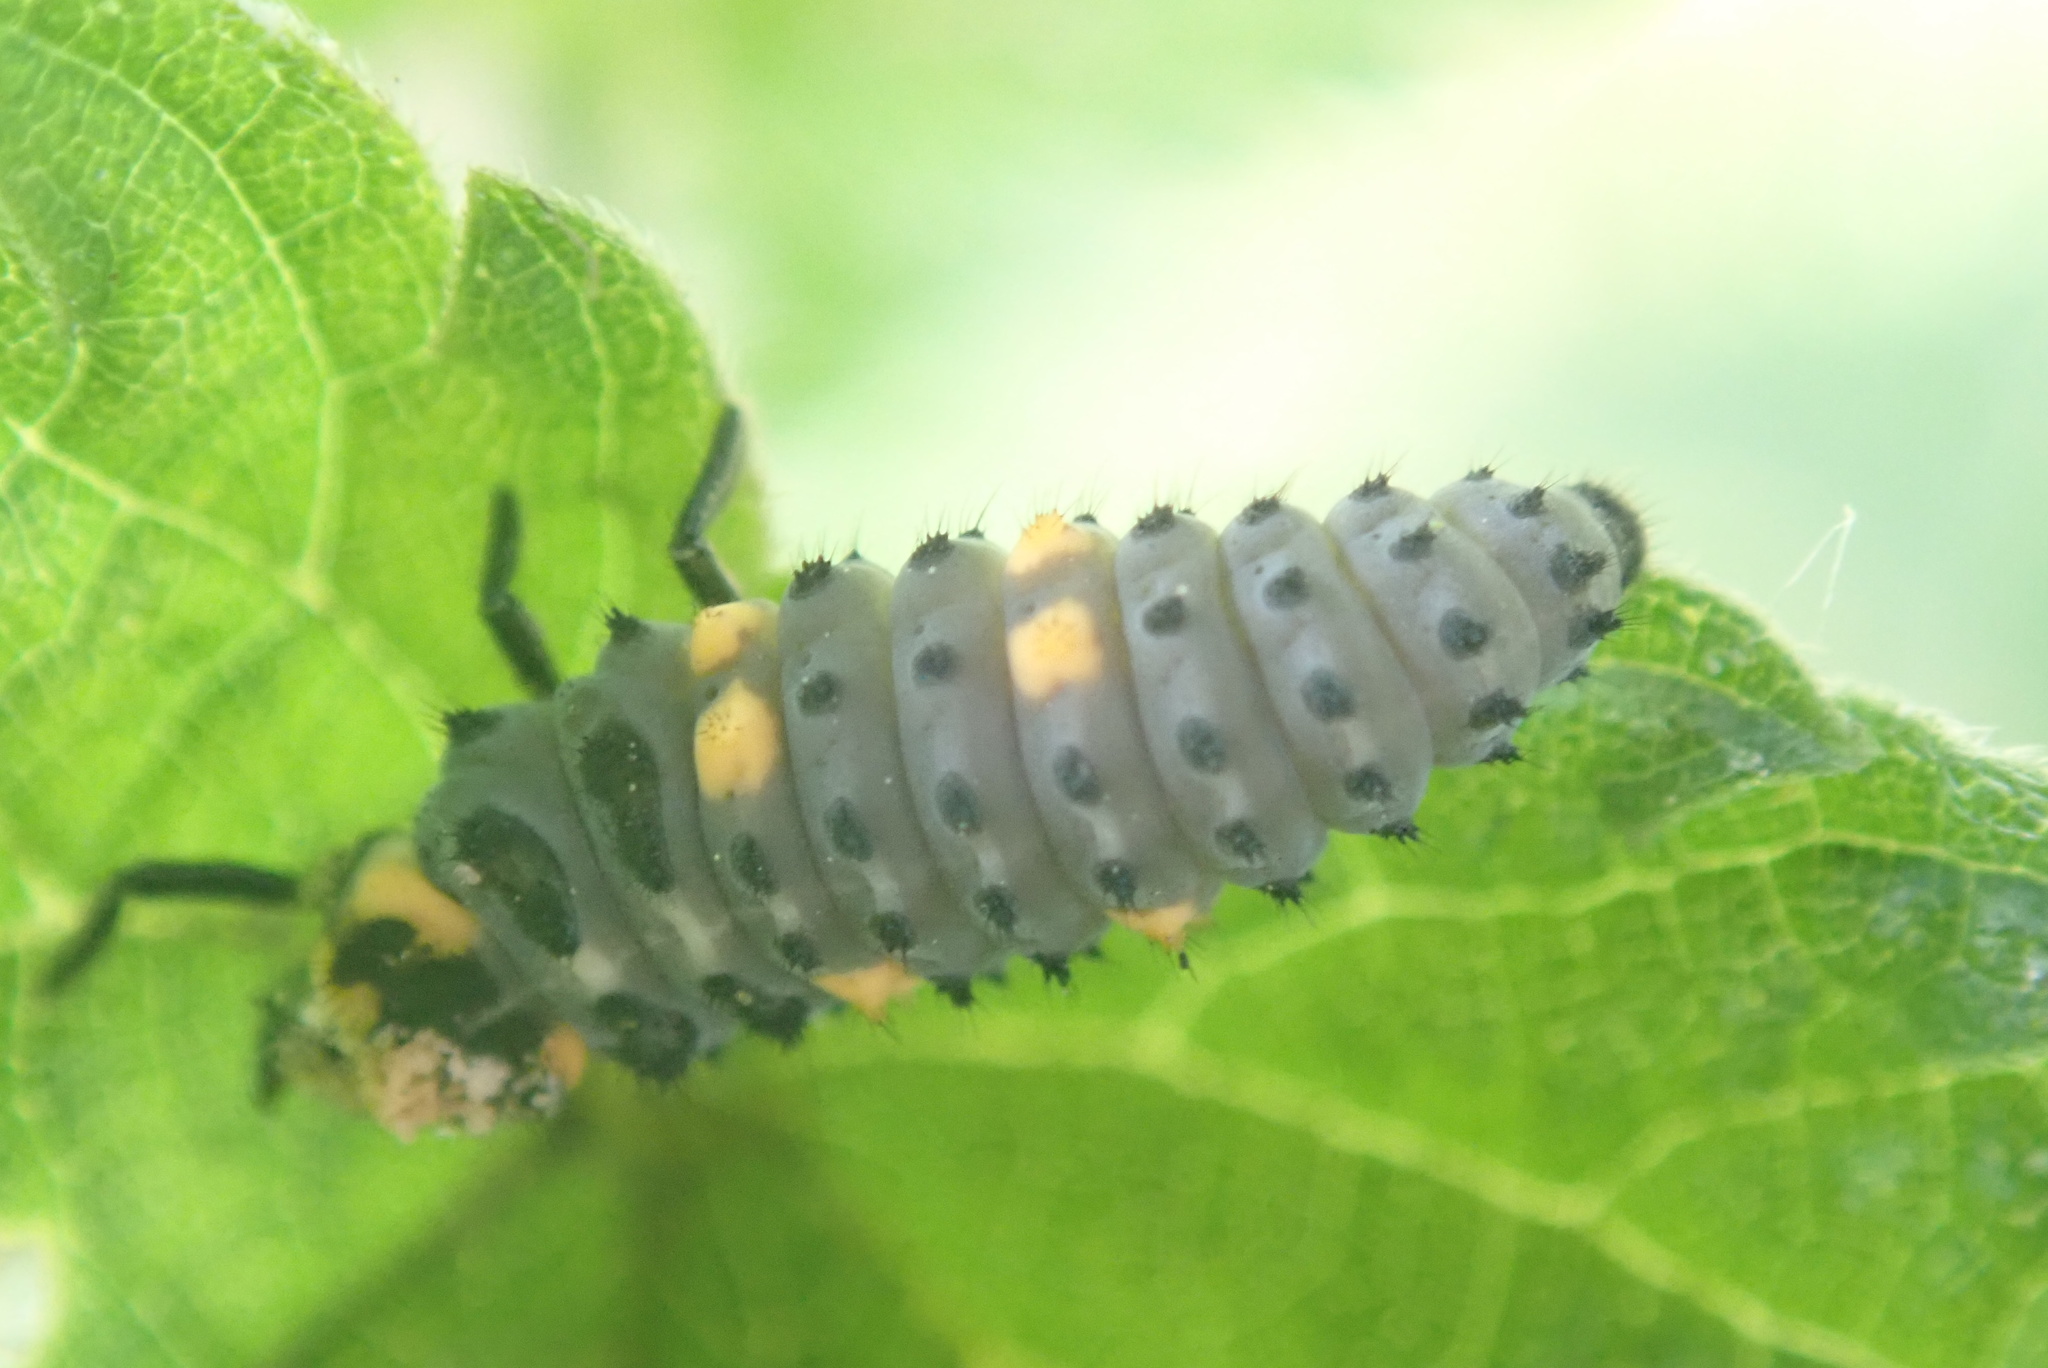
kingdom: Animalia
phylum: Arthropoda
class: Insecta
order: Coleoptera
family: Coccinellidae
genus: Coccinella
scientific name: Coccinella septempunctata
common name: Sevenspotted lady beetle
